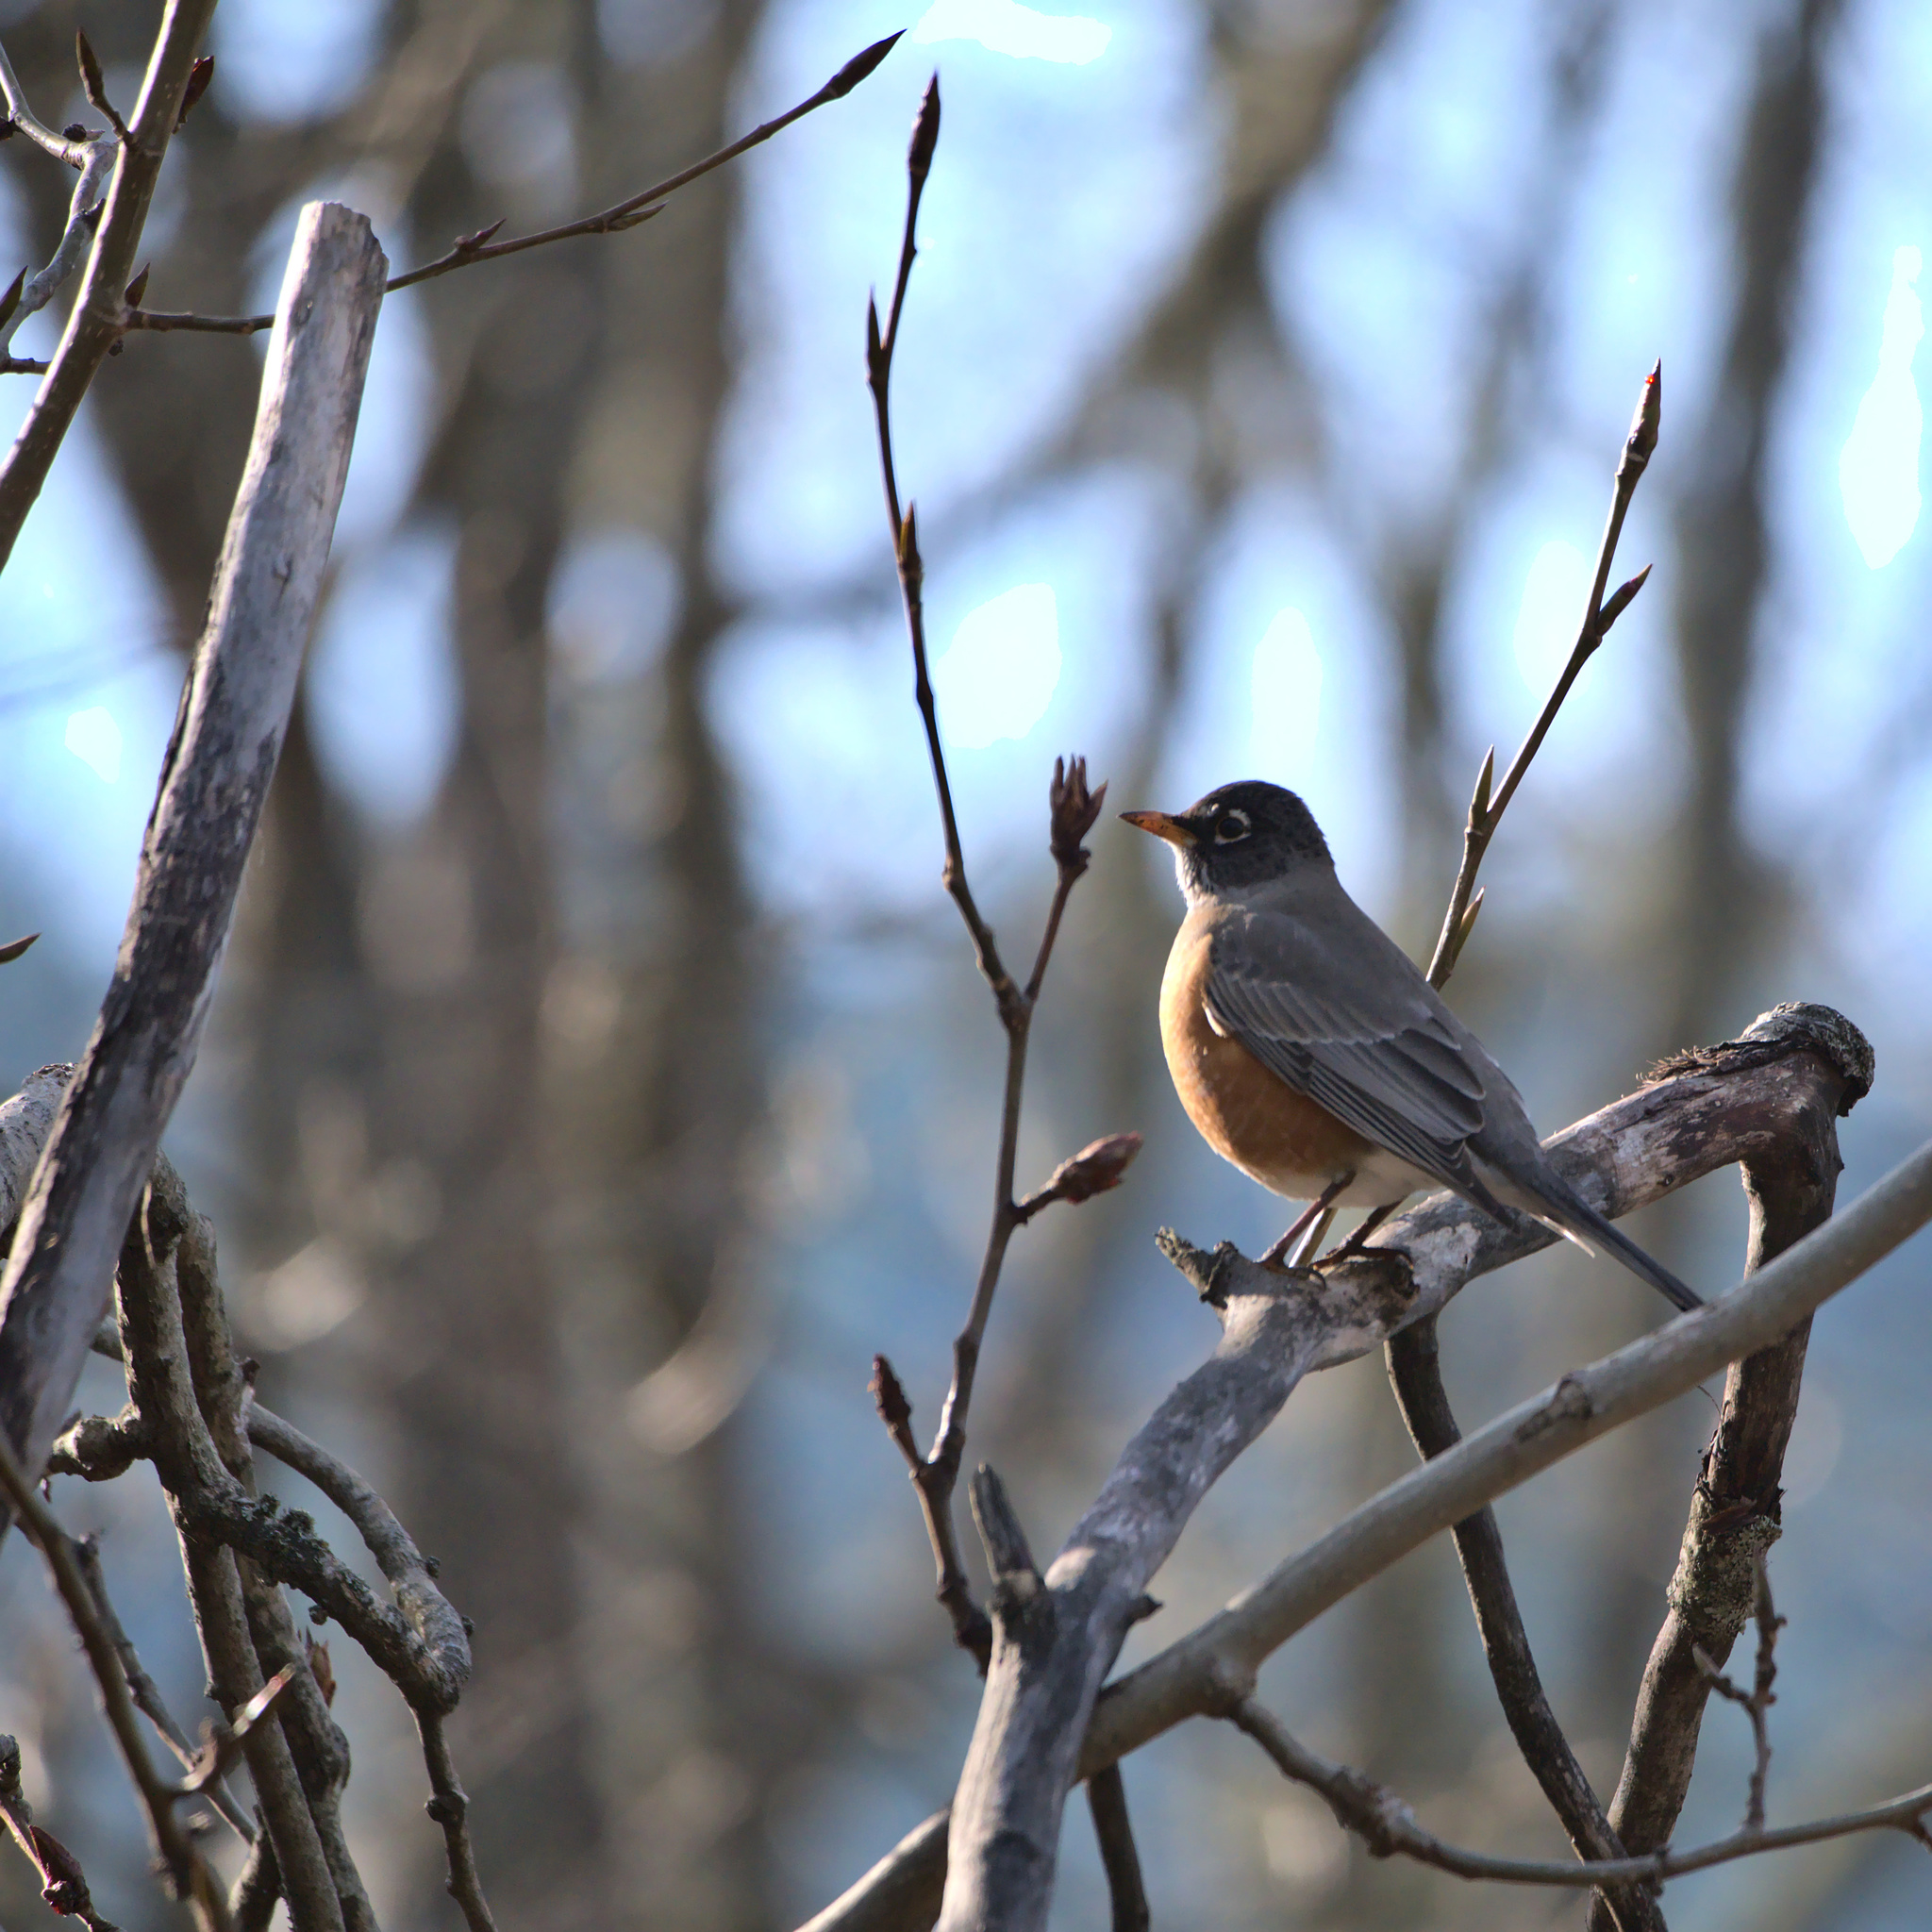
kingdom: Animalia
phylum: Chordata
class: Aves
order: Passeriformes
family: Turdidae
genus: Turdus
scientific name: Turdus migratorius
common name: American robin
